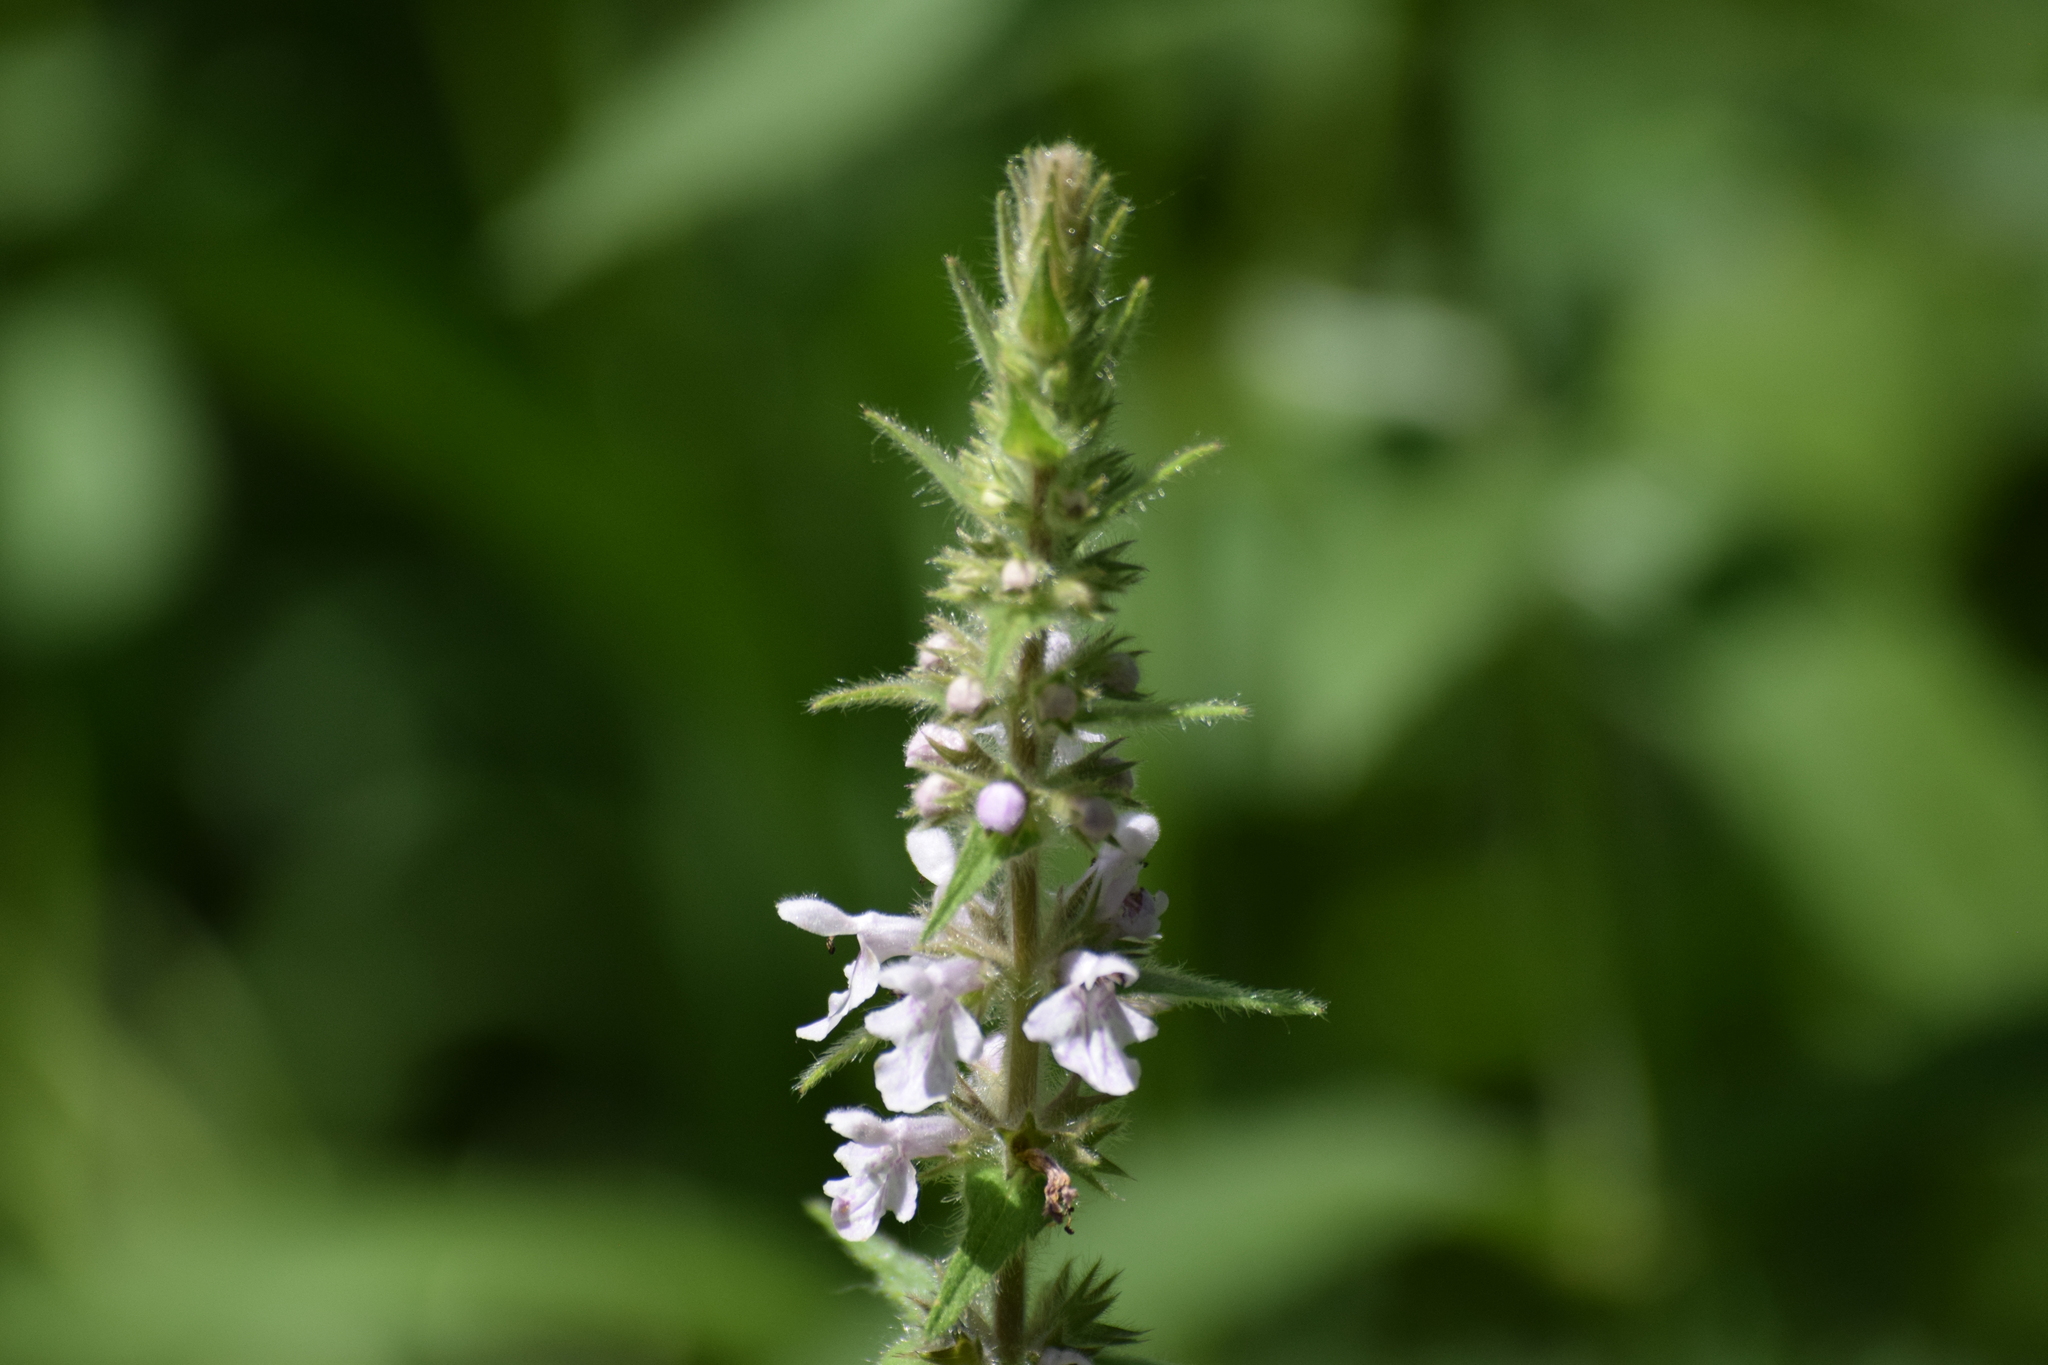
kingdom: Animalia
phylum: Arthropoda
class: Insecta
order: Hymenoptera
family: Apidae
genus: Anthophora
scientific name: Anthophora terminalis
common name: Orange-tipped wood-digger bee
